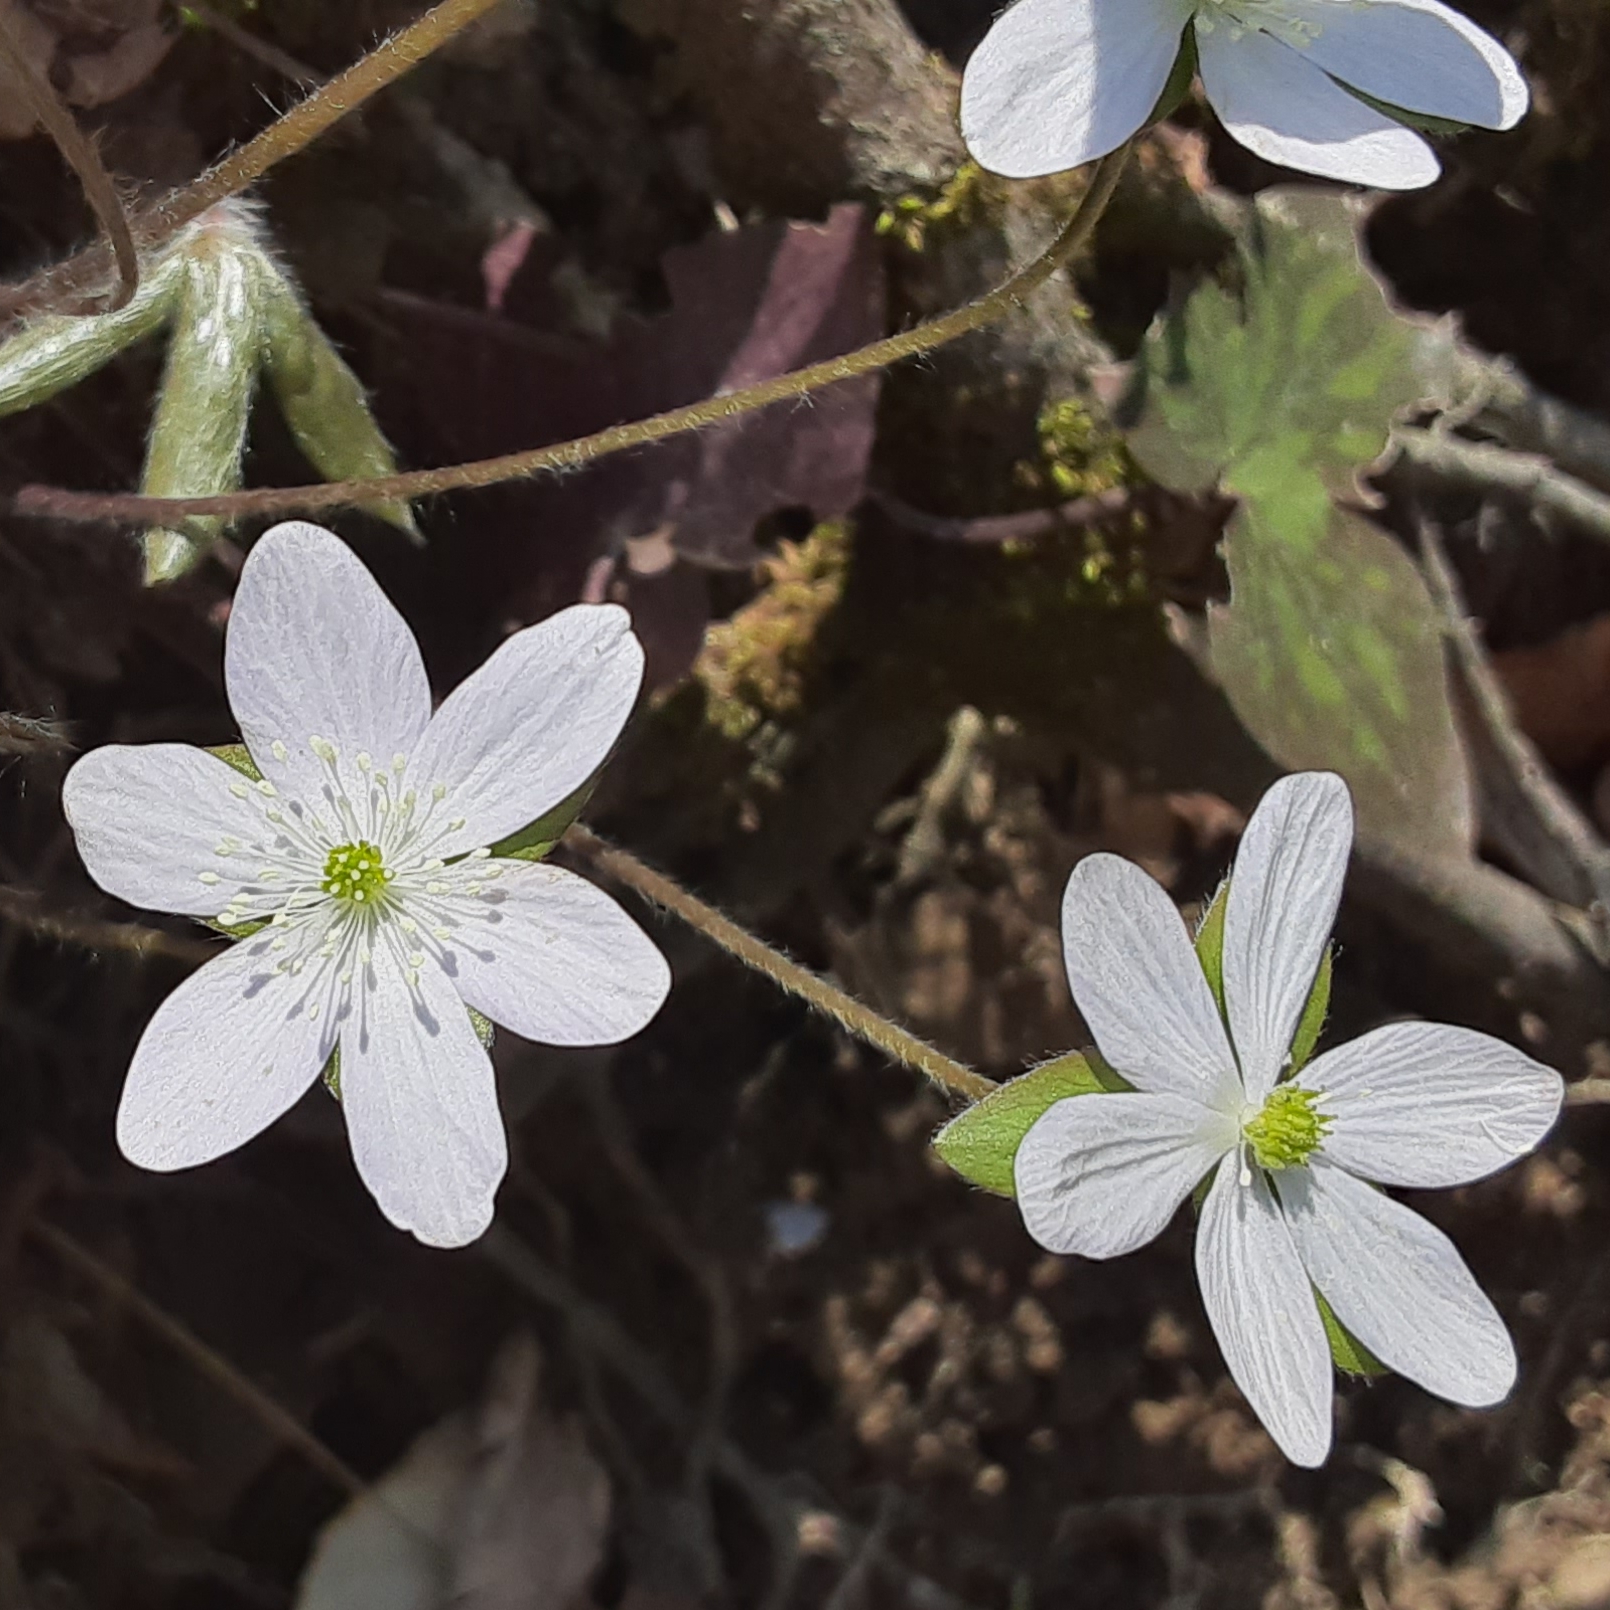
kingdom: Plantae
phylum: Tracheophyta
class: Magnoliopsida
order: Ranunculales
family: Ranunculaceae
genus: Hepatica
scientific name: Hepatica acutiloba
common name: Sharp-lobed hepatica
